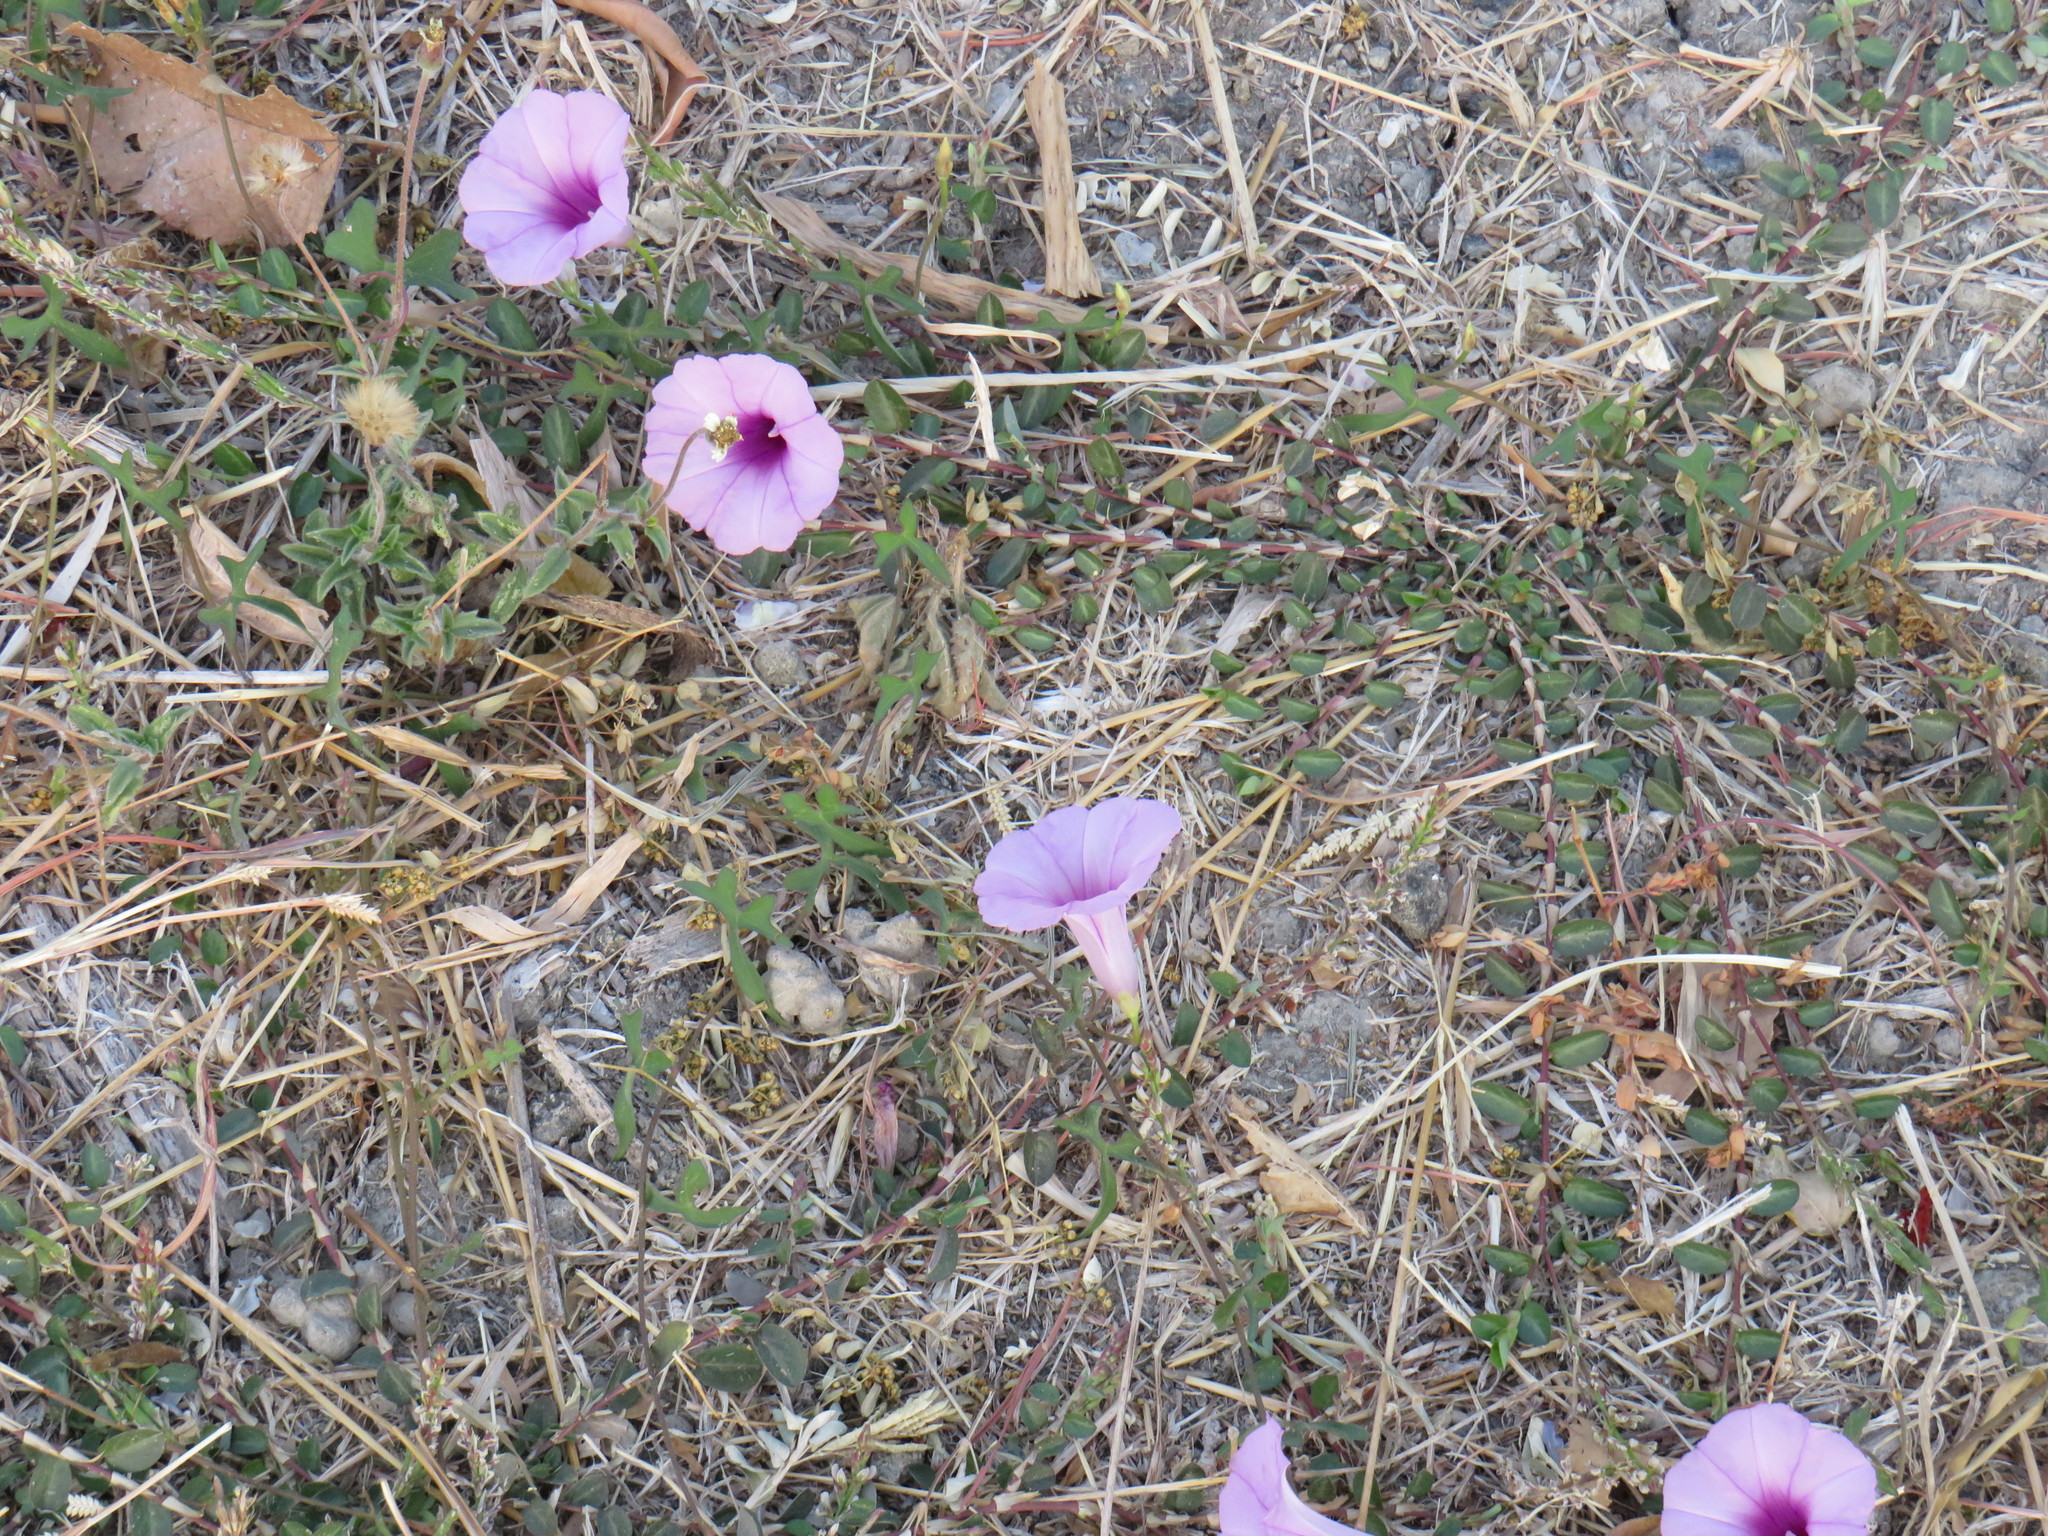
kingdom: Plantae
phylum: Tracheophyta
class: Magnoliopsida
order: Solanales
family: Convolvulaceae
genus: Ipomoea
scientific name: Ipomoea trifida
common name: Cotton morningglory
